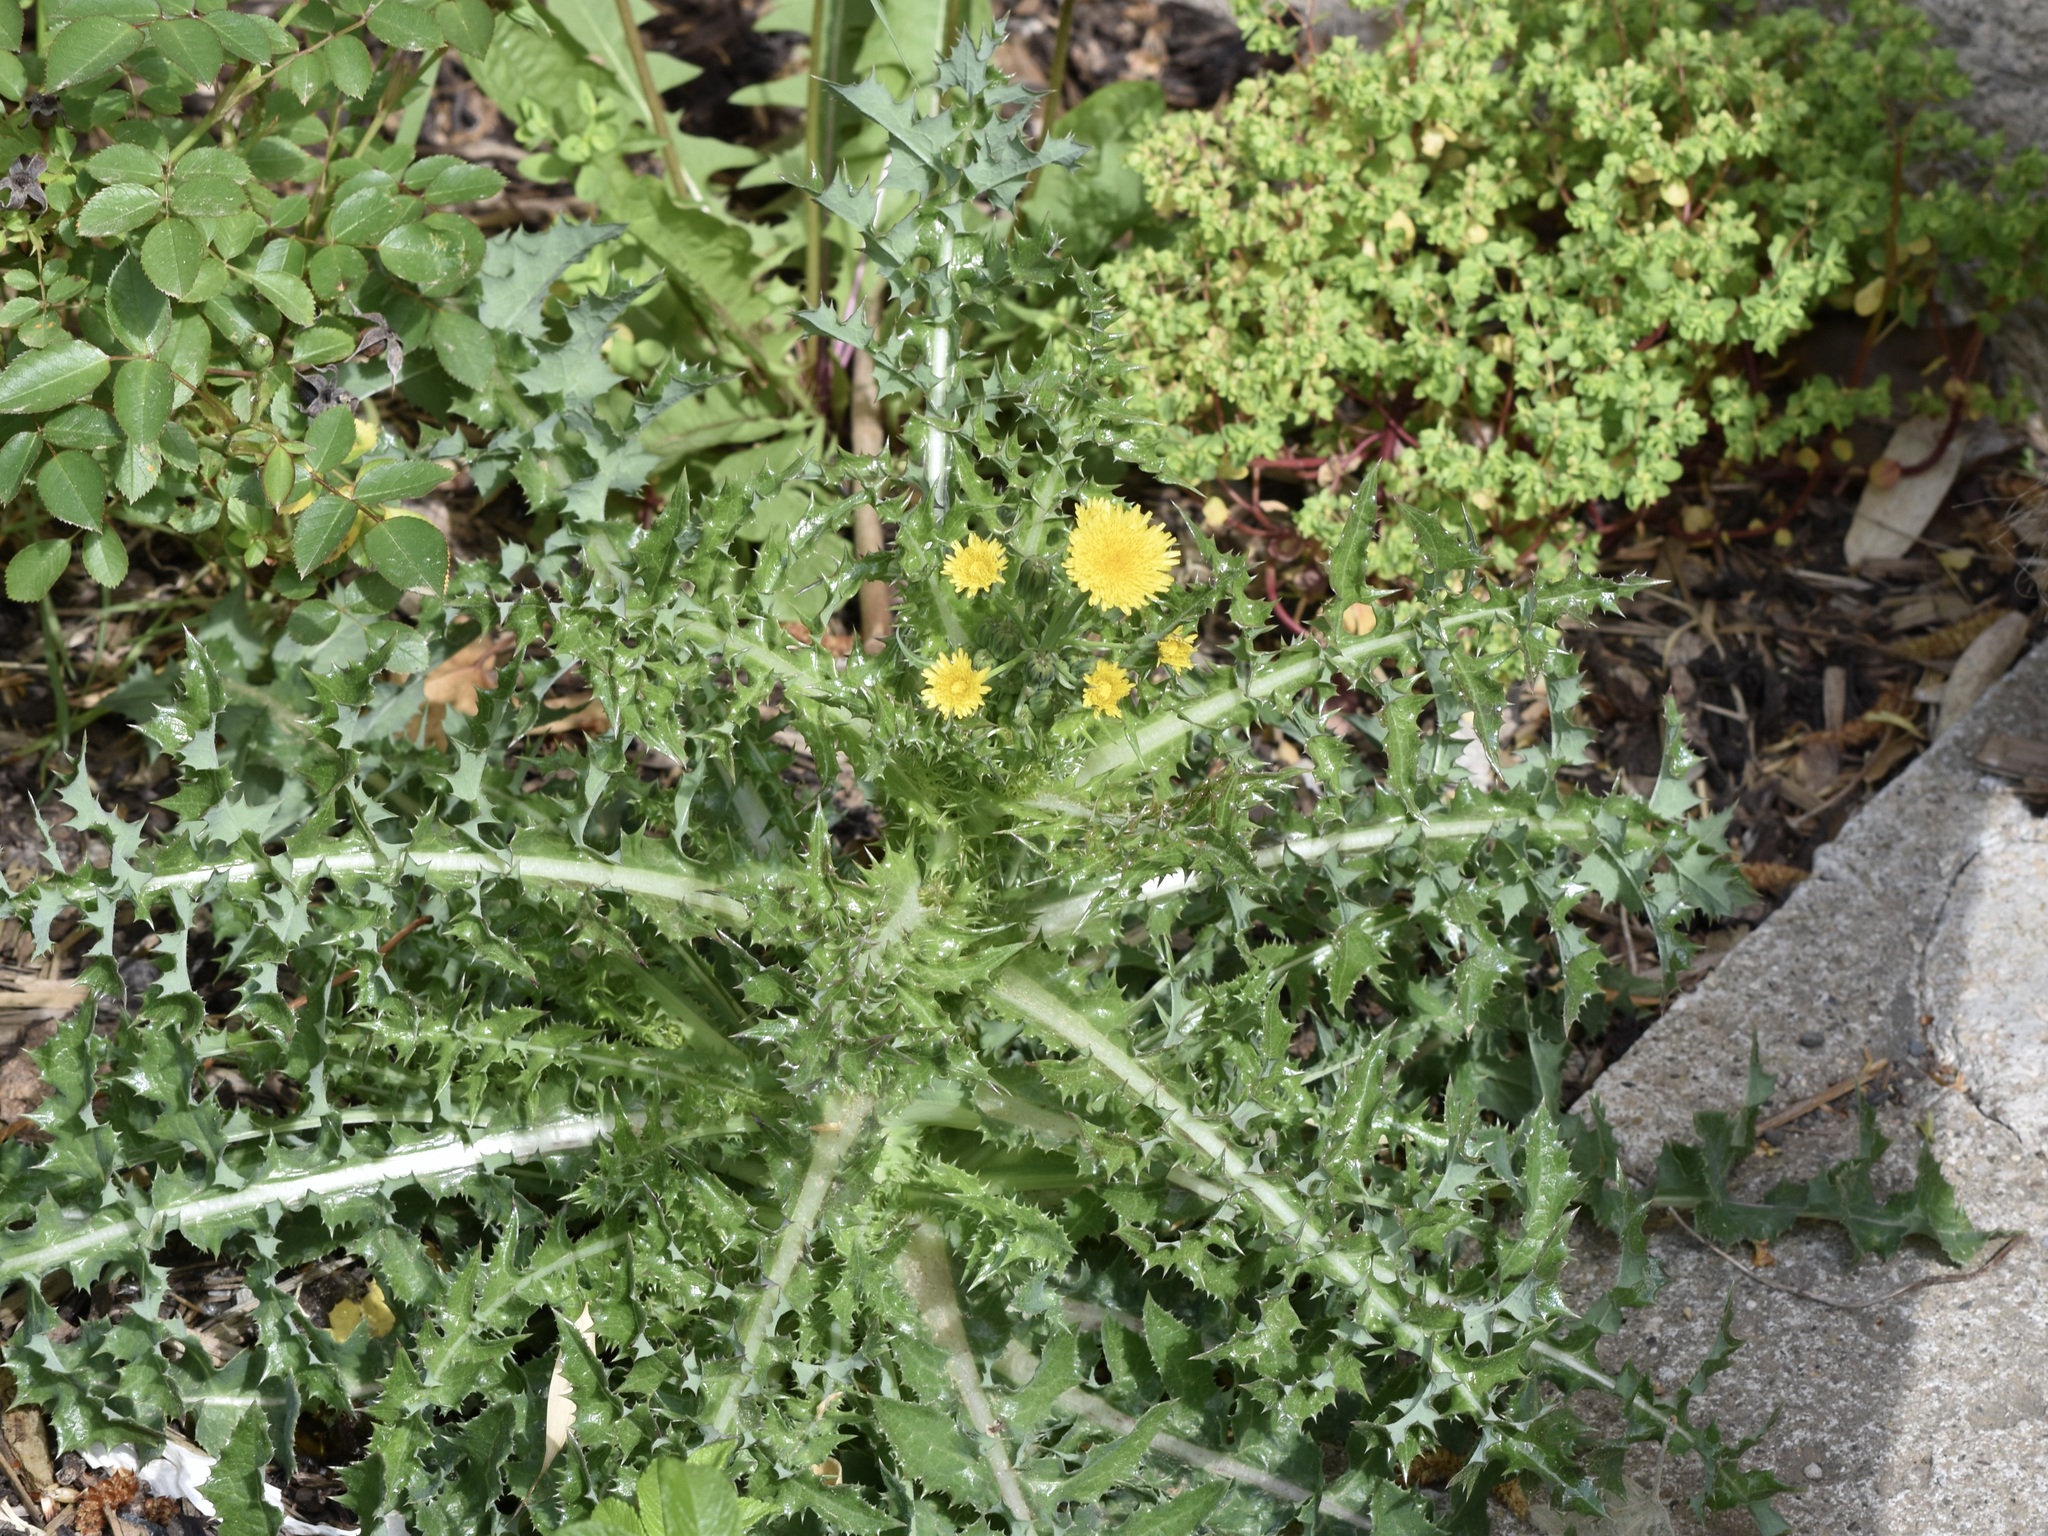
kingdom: Plantae
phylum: Tracheophyta
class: Magnoliopsida
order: Asterales
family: Asteraceae
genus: Sonchus
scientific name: Sonchus asper
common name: Prickly sow-thistle
